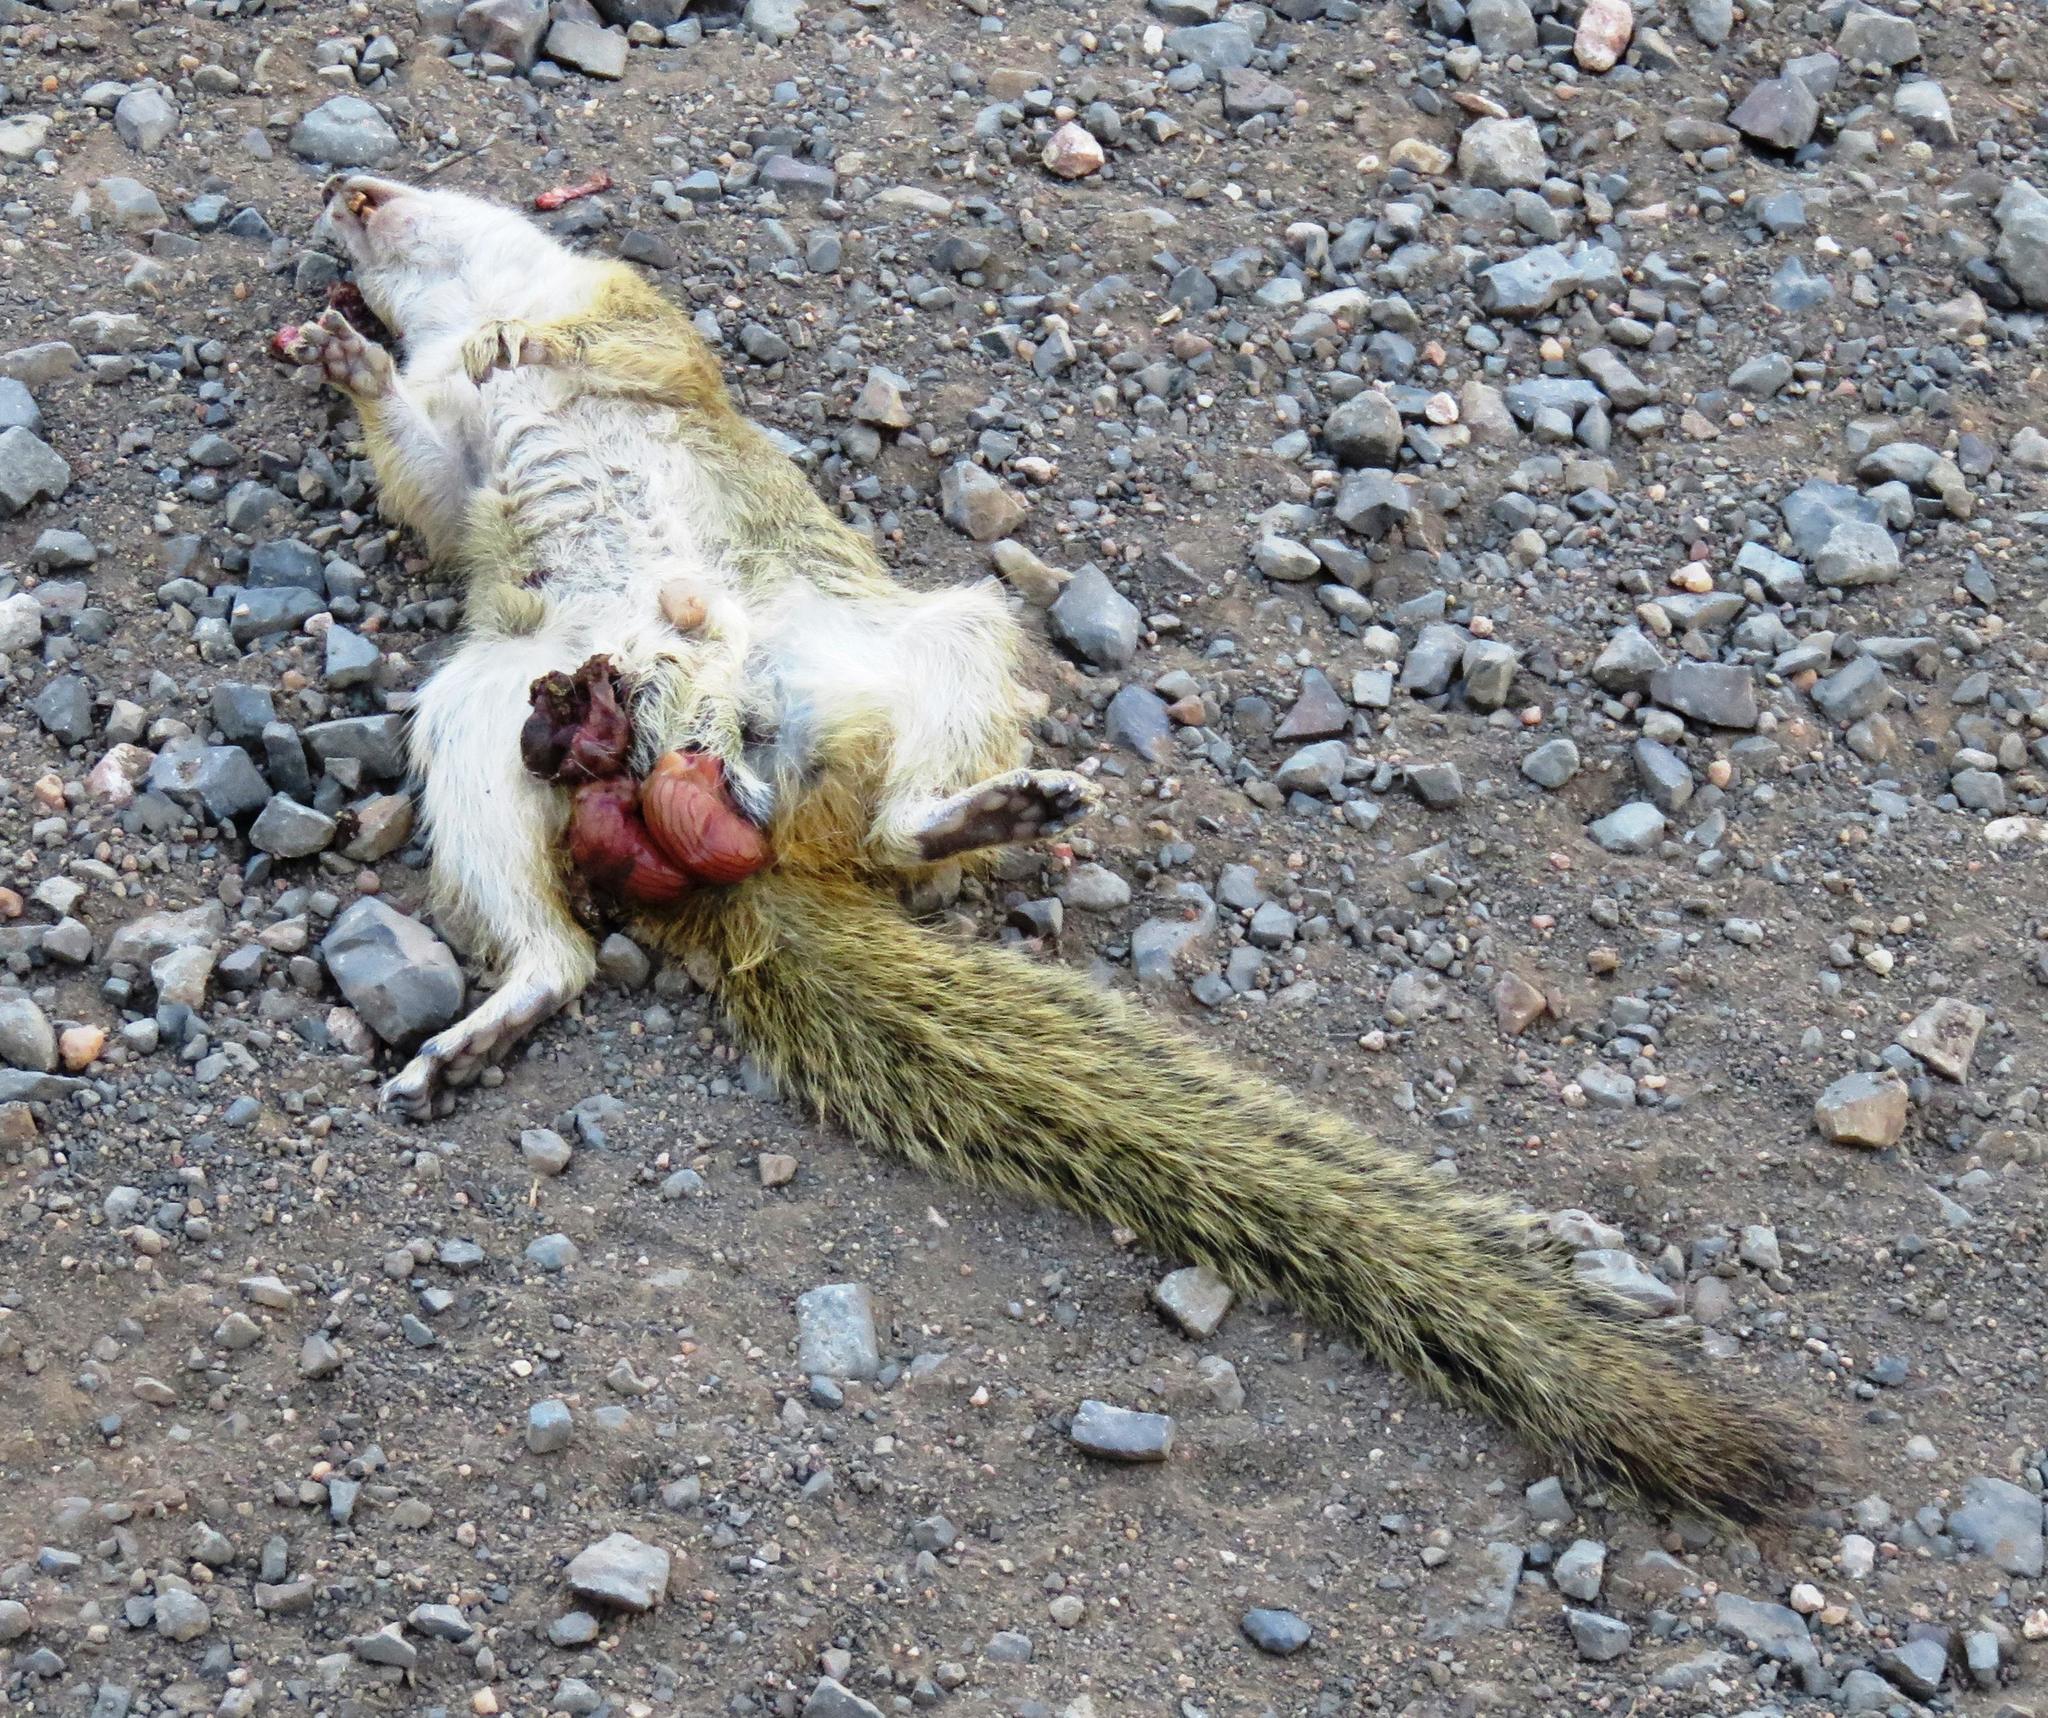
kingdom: Animalia
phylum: Chordata
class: Mammalia
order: Rodentia
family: Sciuridae
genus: Paraxerus
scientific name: Paraxerus cepapi
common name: Smith's bush squirrel
